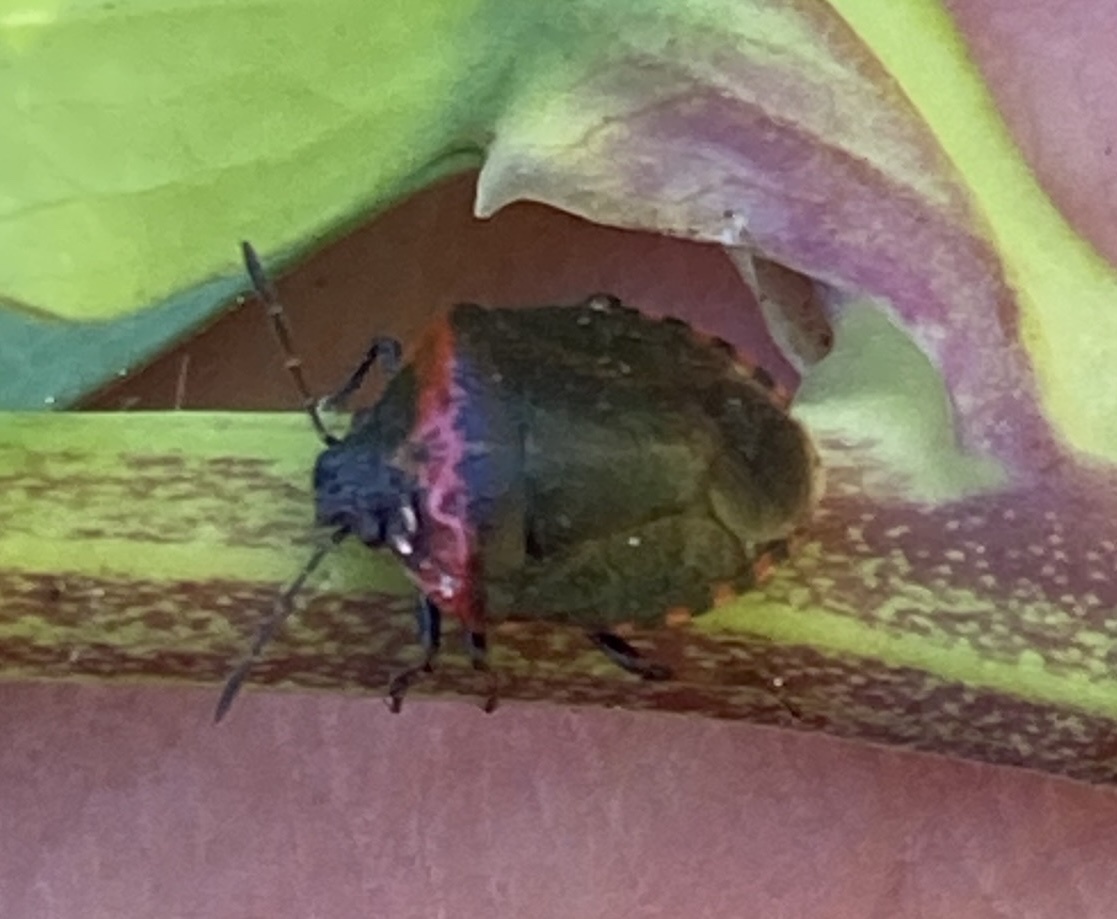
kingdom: Animalia
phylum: Arthropoda
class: Insecta
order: Hemiptera
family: Pentatomidae
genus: Cosmopepla
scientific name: Cosmopepla uhleri
